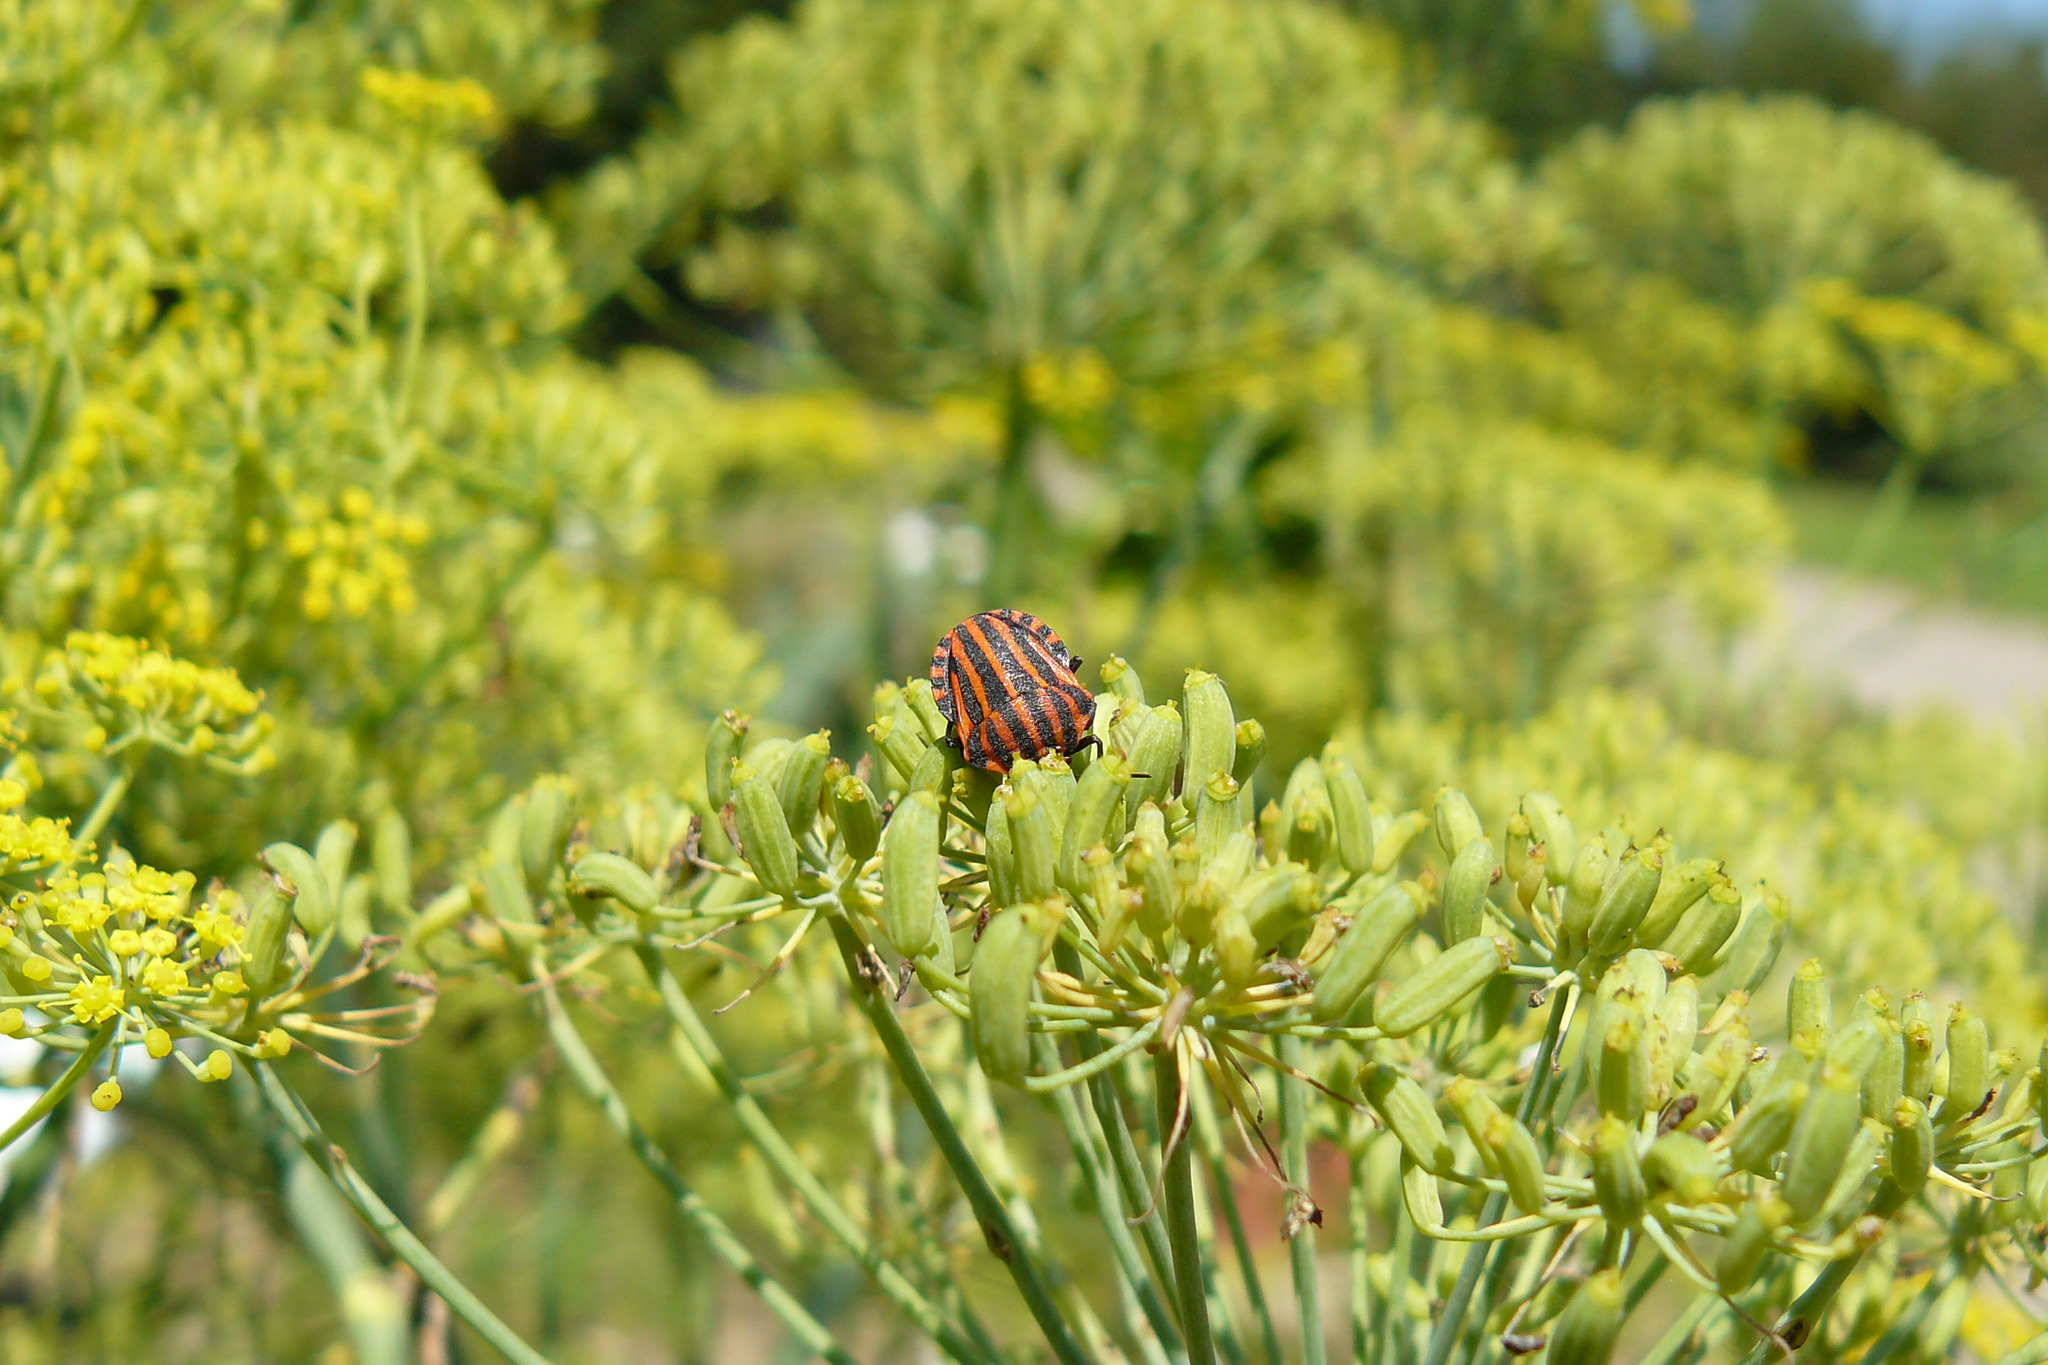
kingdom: Animalia
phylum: Arthropoda
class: Insecta
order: Hemiptera
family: Pentatomidae
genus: Graphosoma
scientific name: Graphosoma italicum
